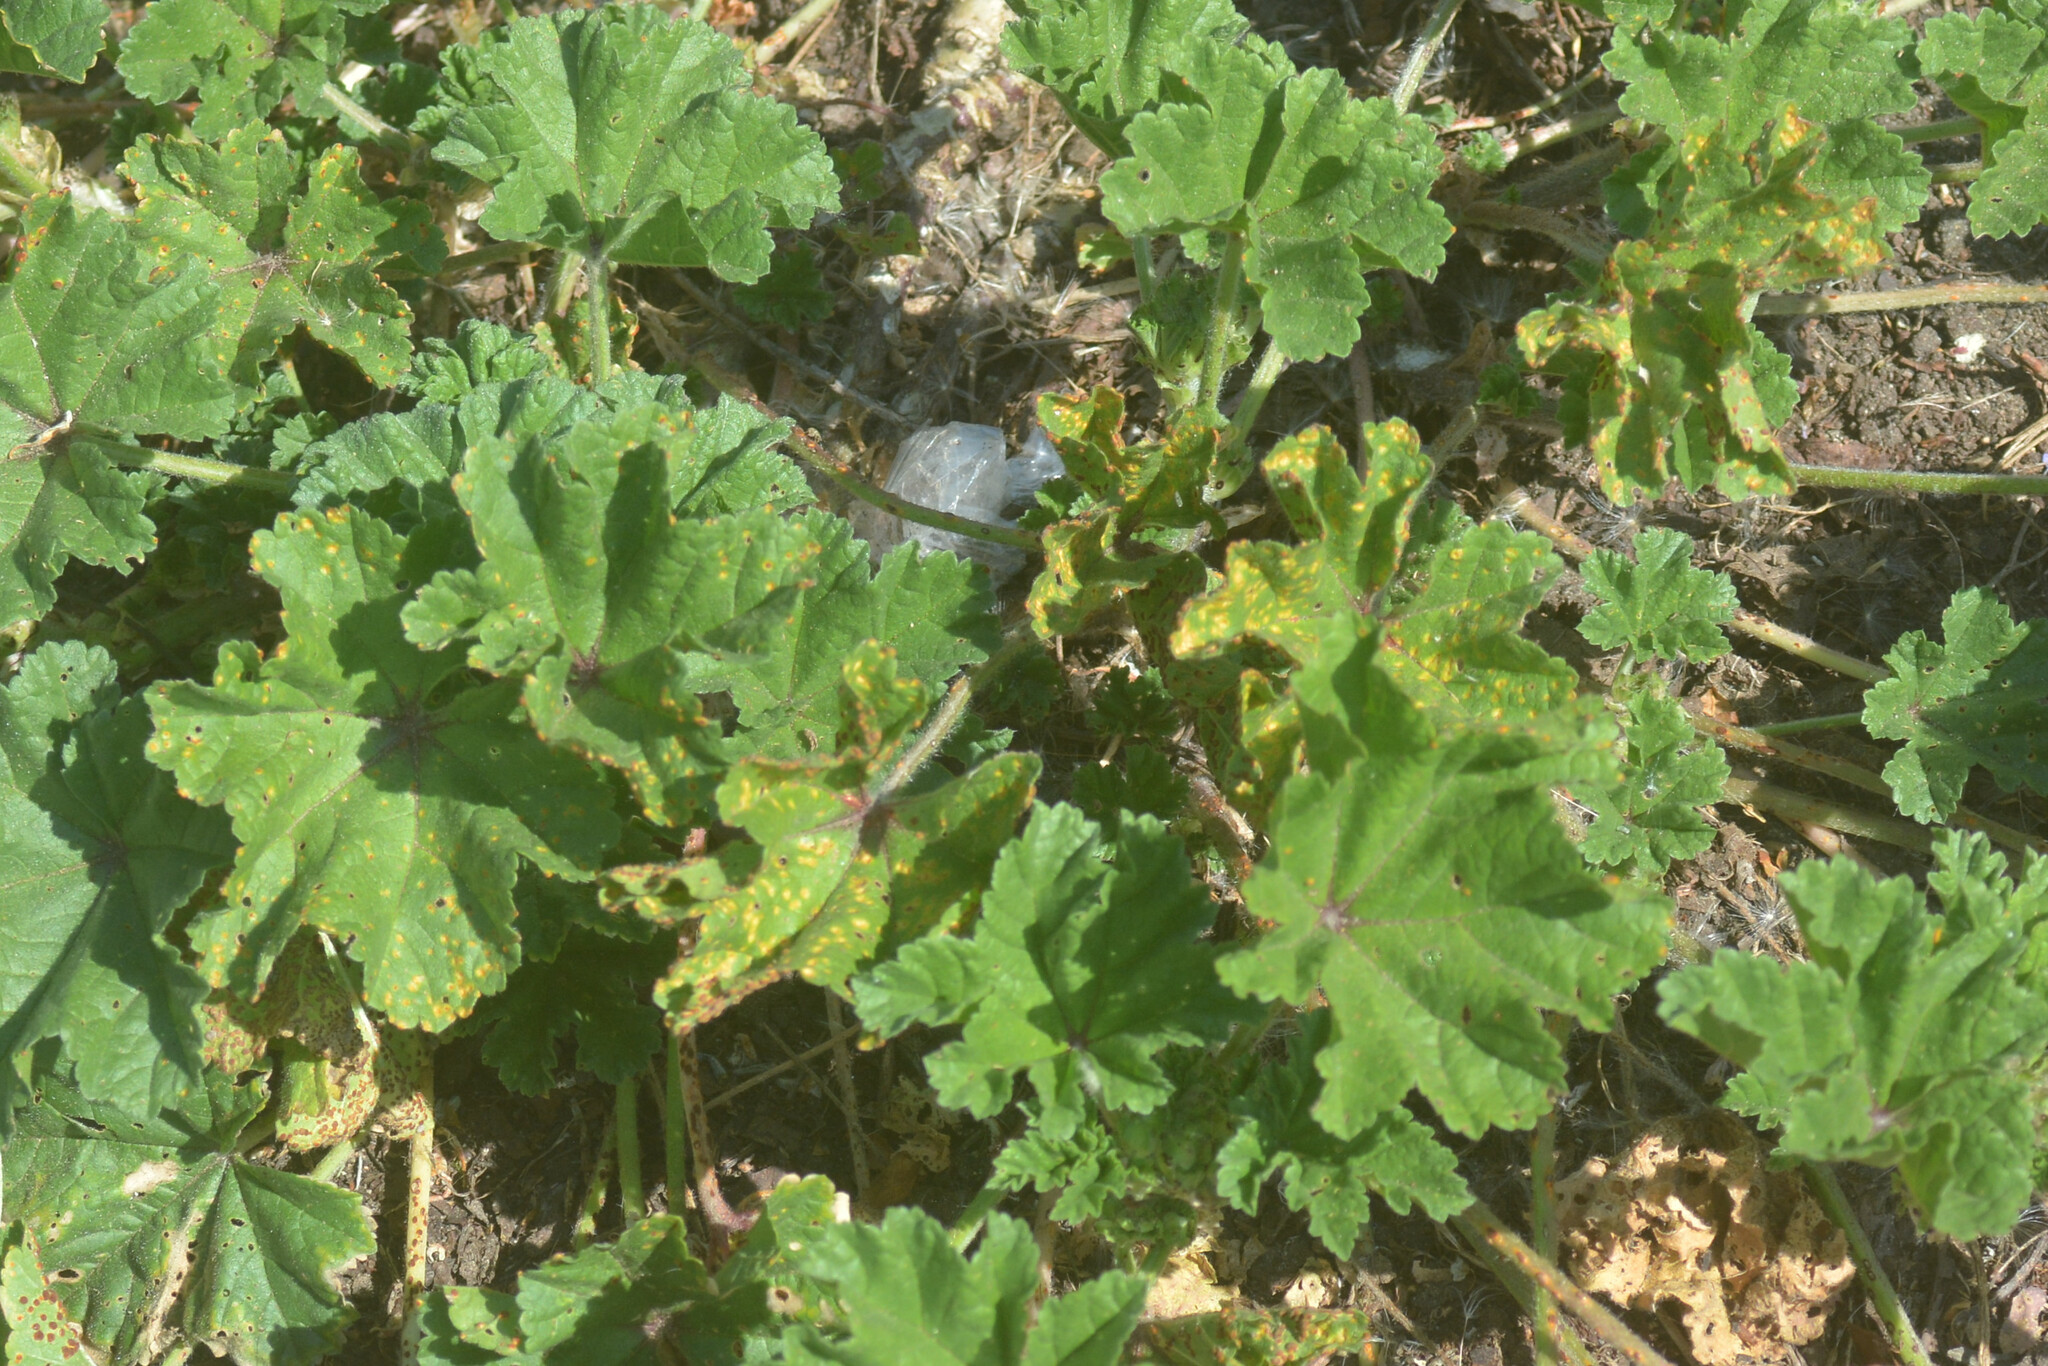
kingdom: Fungi
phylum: Basidiomycota
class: Pucciniomycetes
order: Pucciniales
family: Pucciniaceae
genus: Puccinia
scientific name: Puccinia malvacearum
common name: Hollyhock rust
